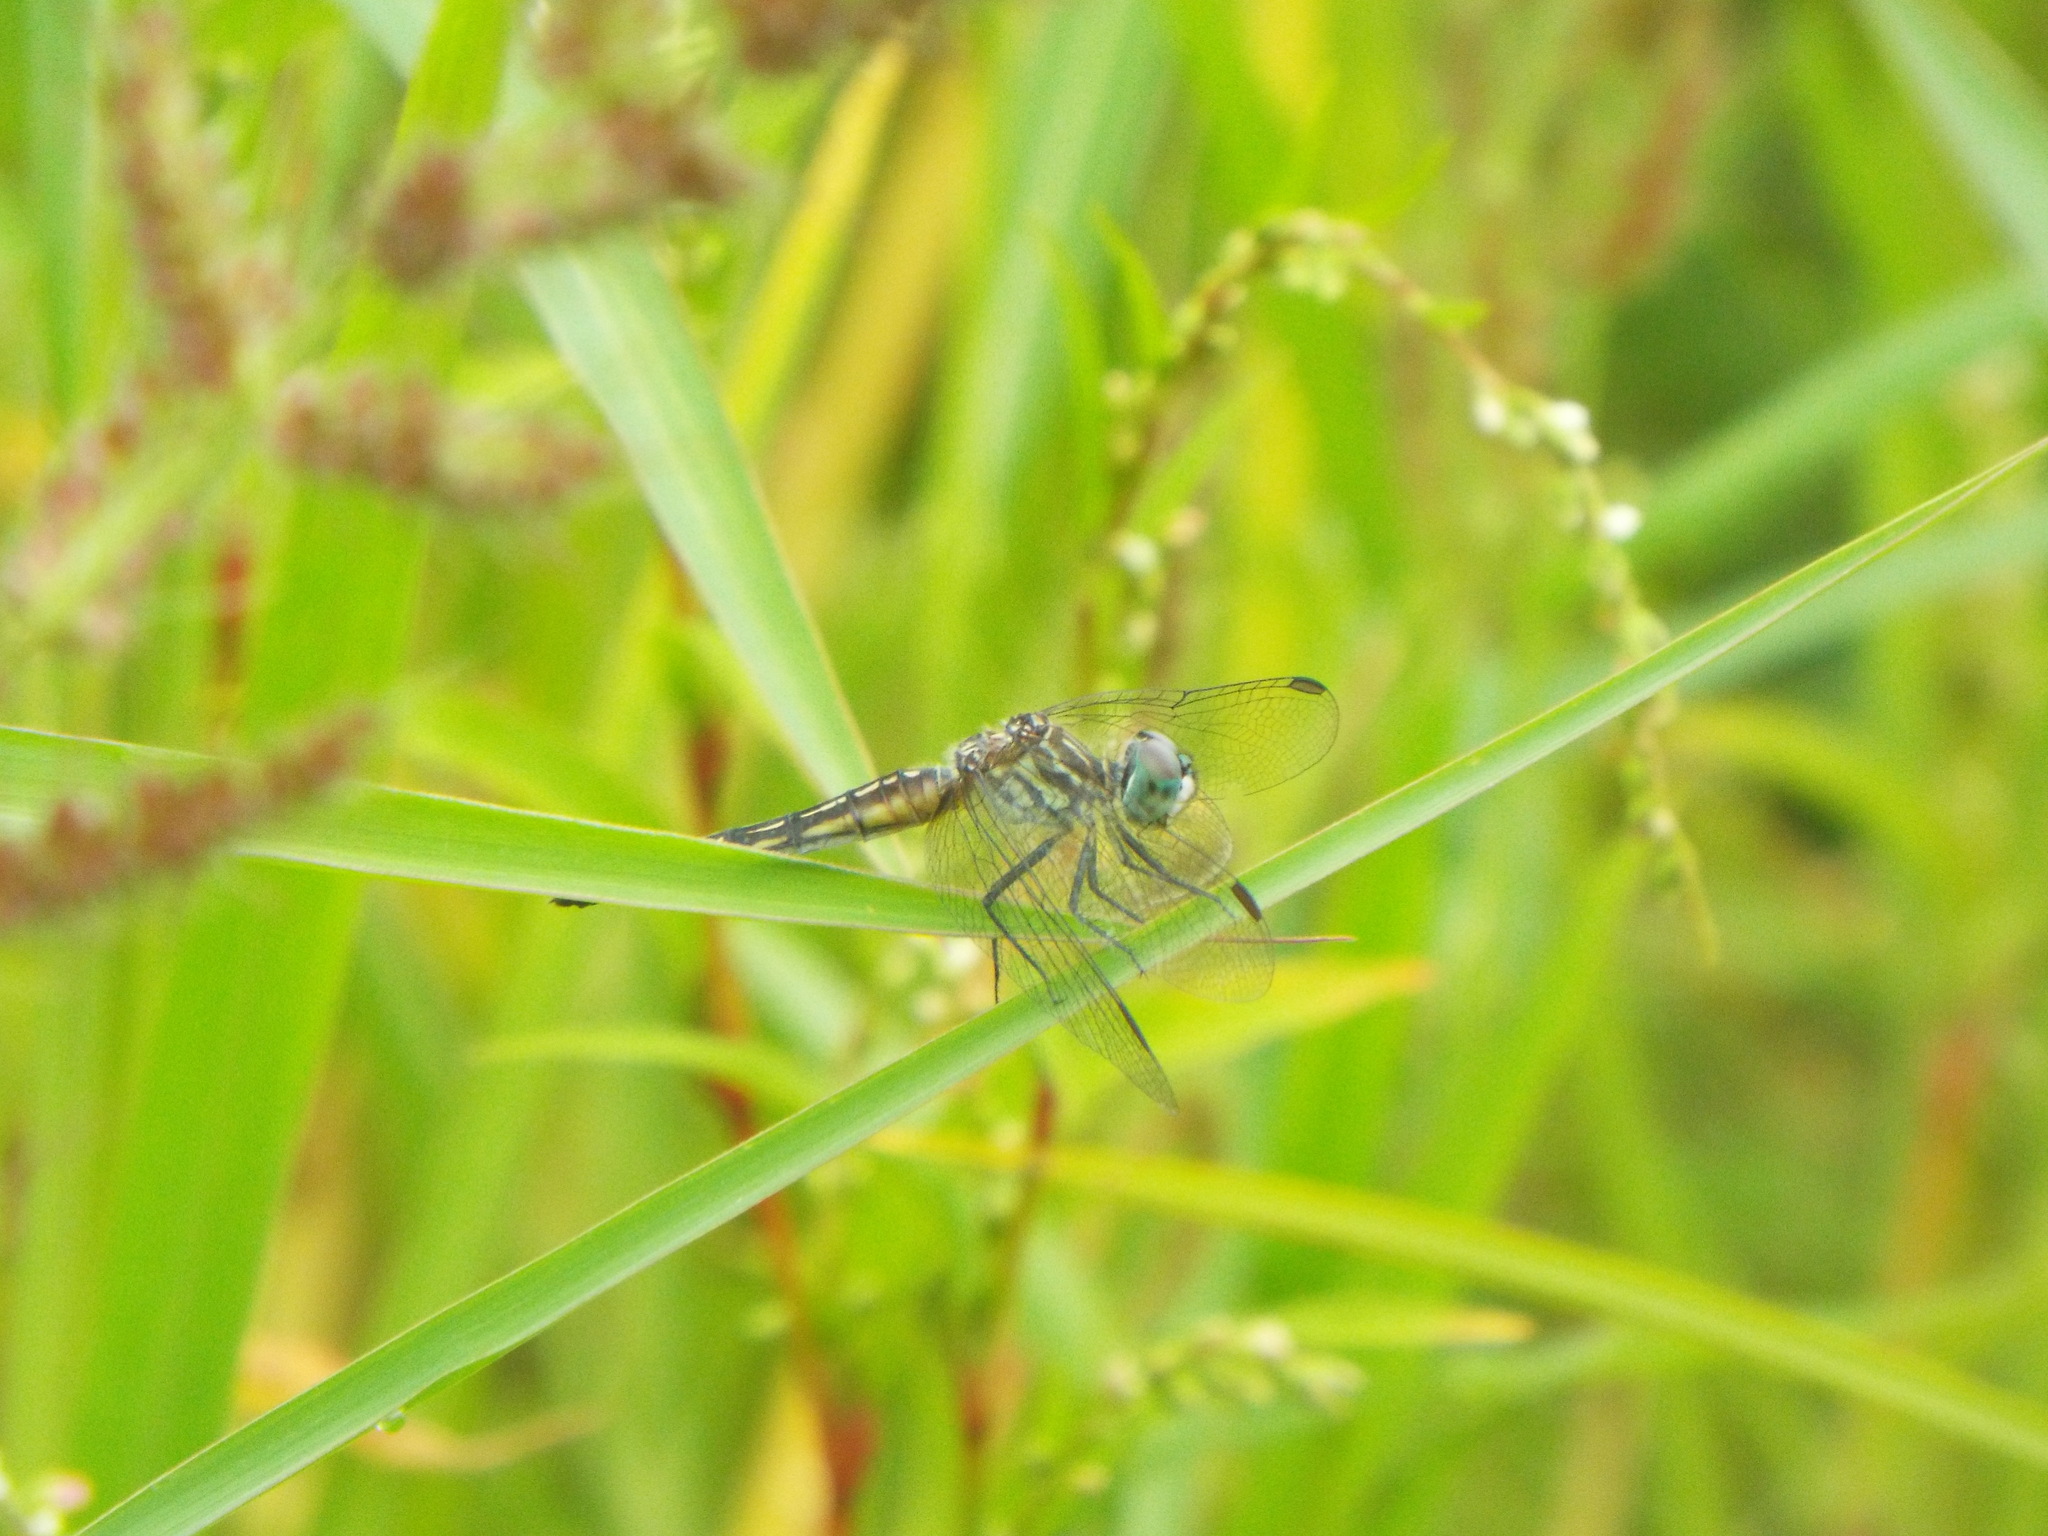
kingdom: Animalia
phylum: Arthropoda
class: Insecta
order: Odonata
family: Libellulidae
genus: Pachydiplax
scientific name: Pachydiplax longipennis
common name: Blue dasher
